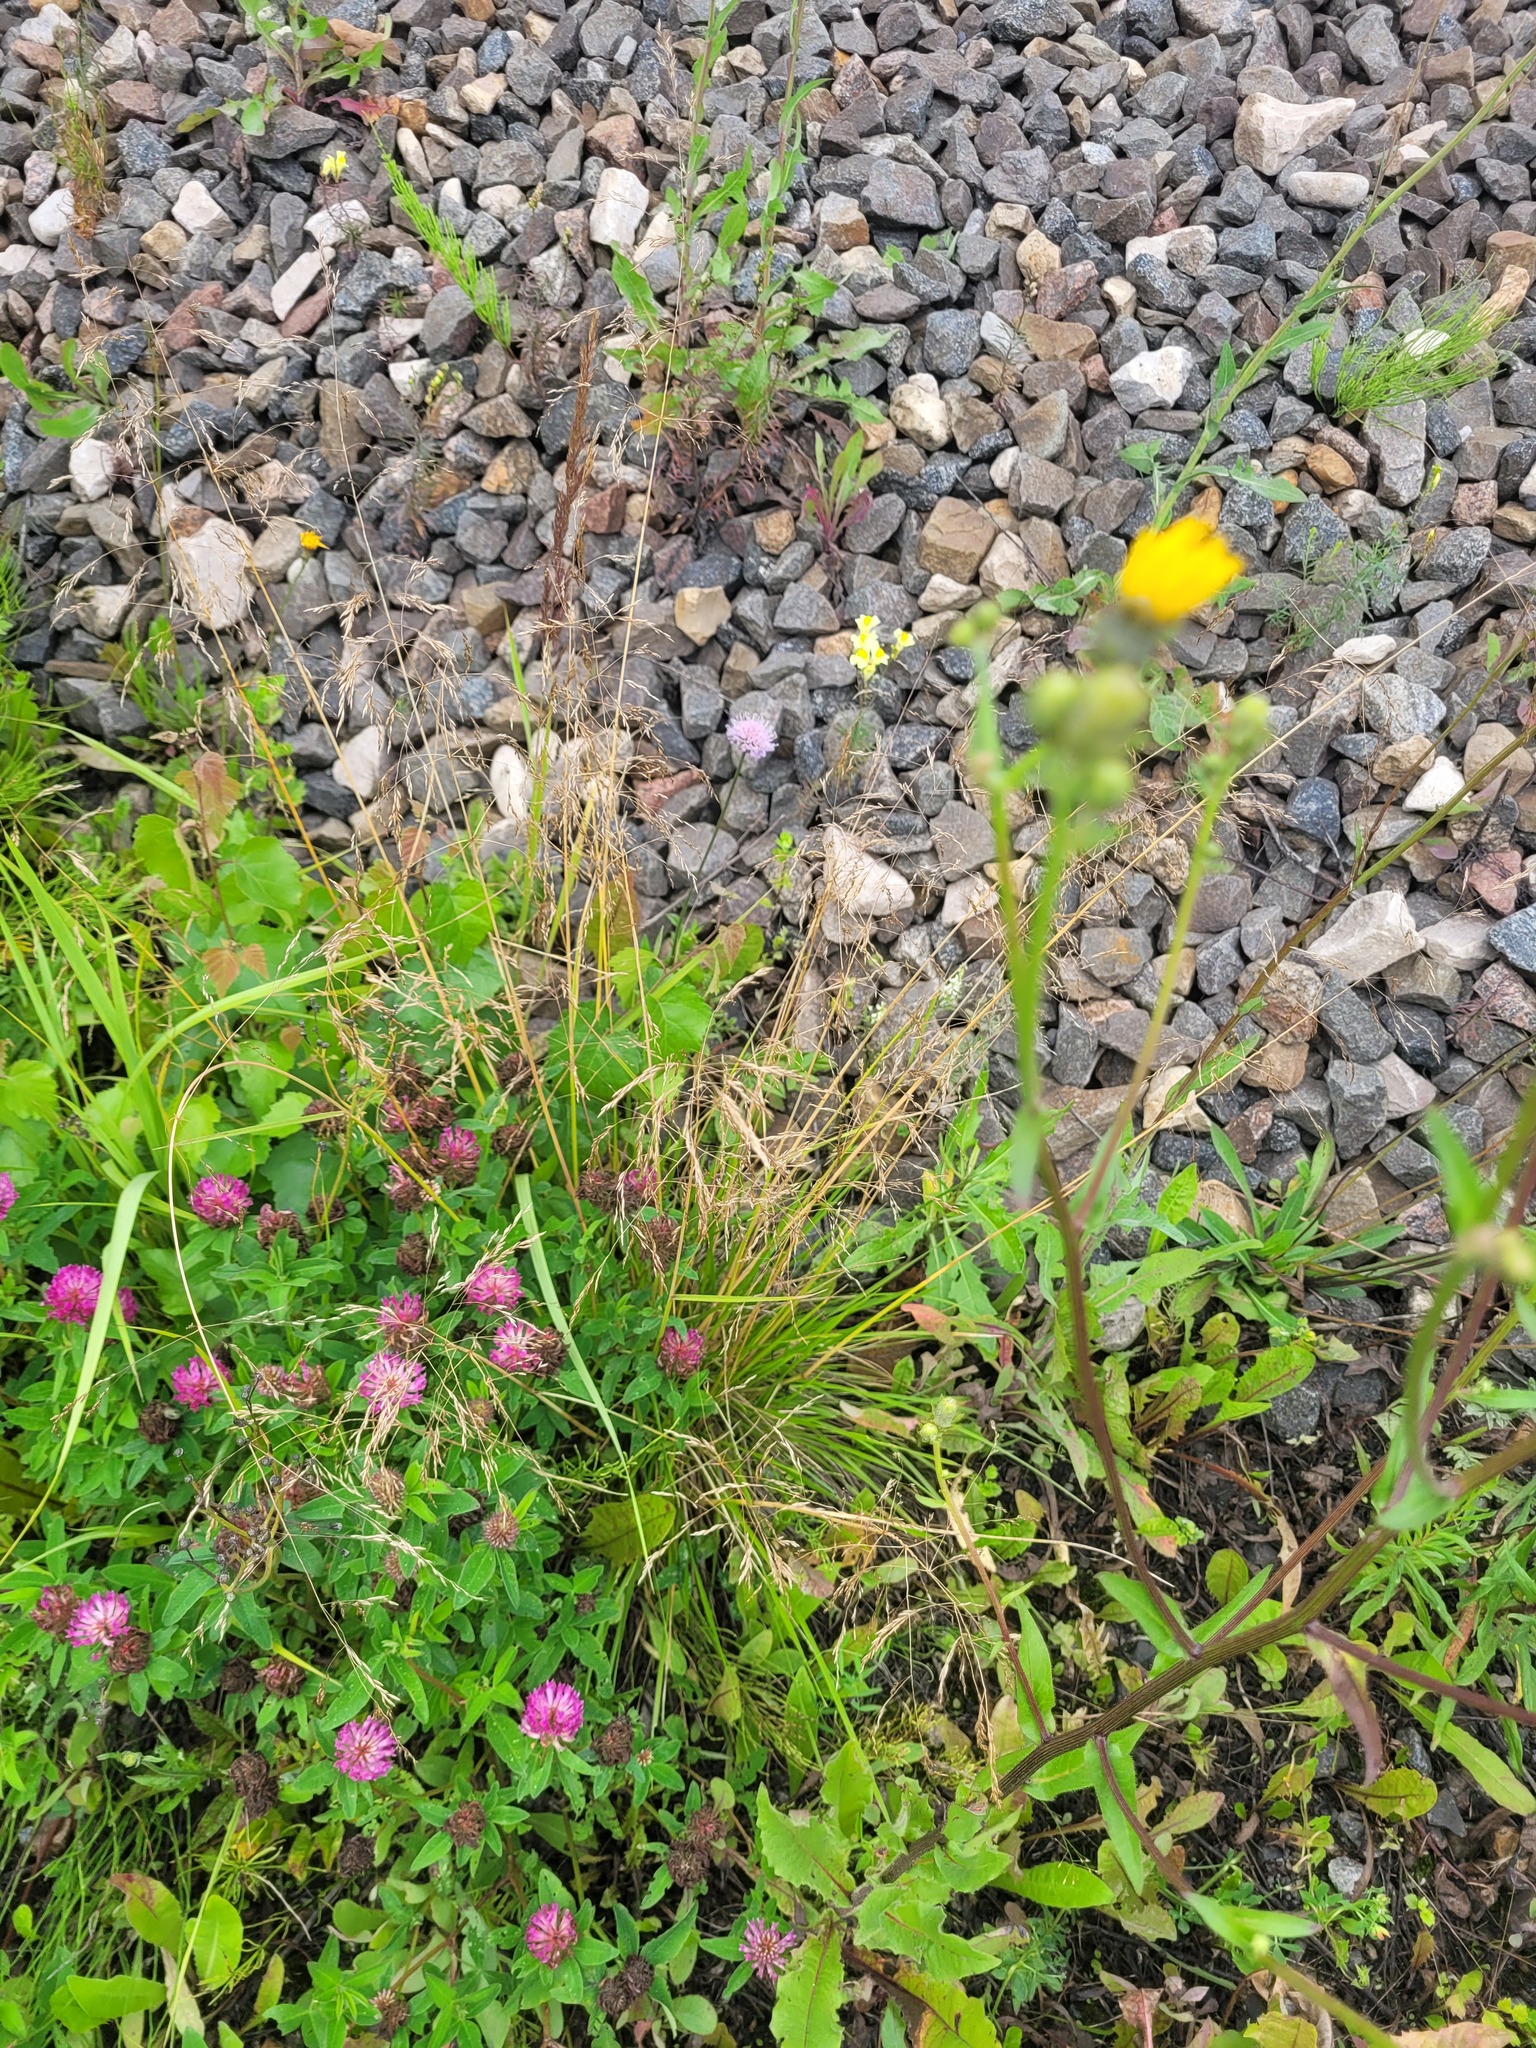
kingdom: Plantae
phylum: Tracheophyta
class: Liliopsida
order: Poales
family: Poaceae
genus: Deschampsia
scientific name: Deschampsia cespitosa
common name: Tufted hair-grass
